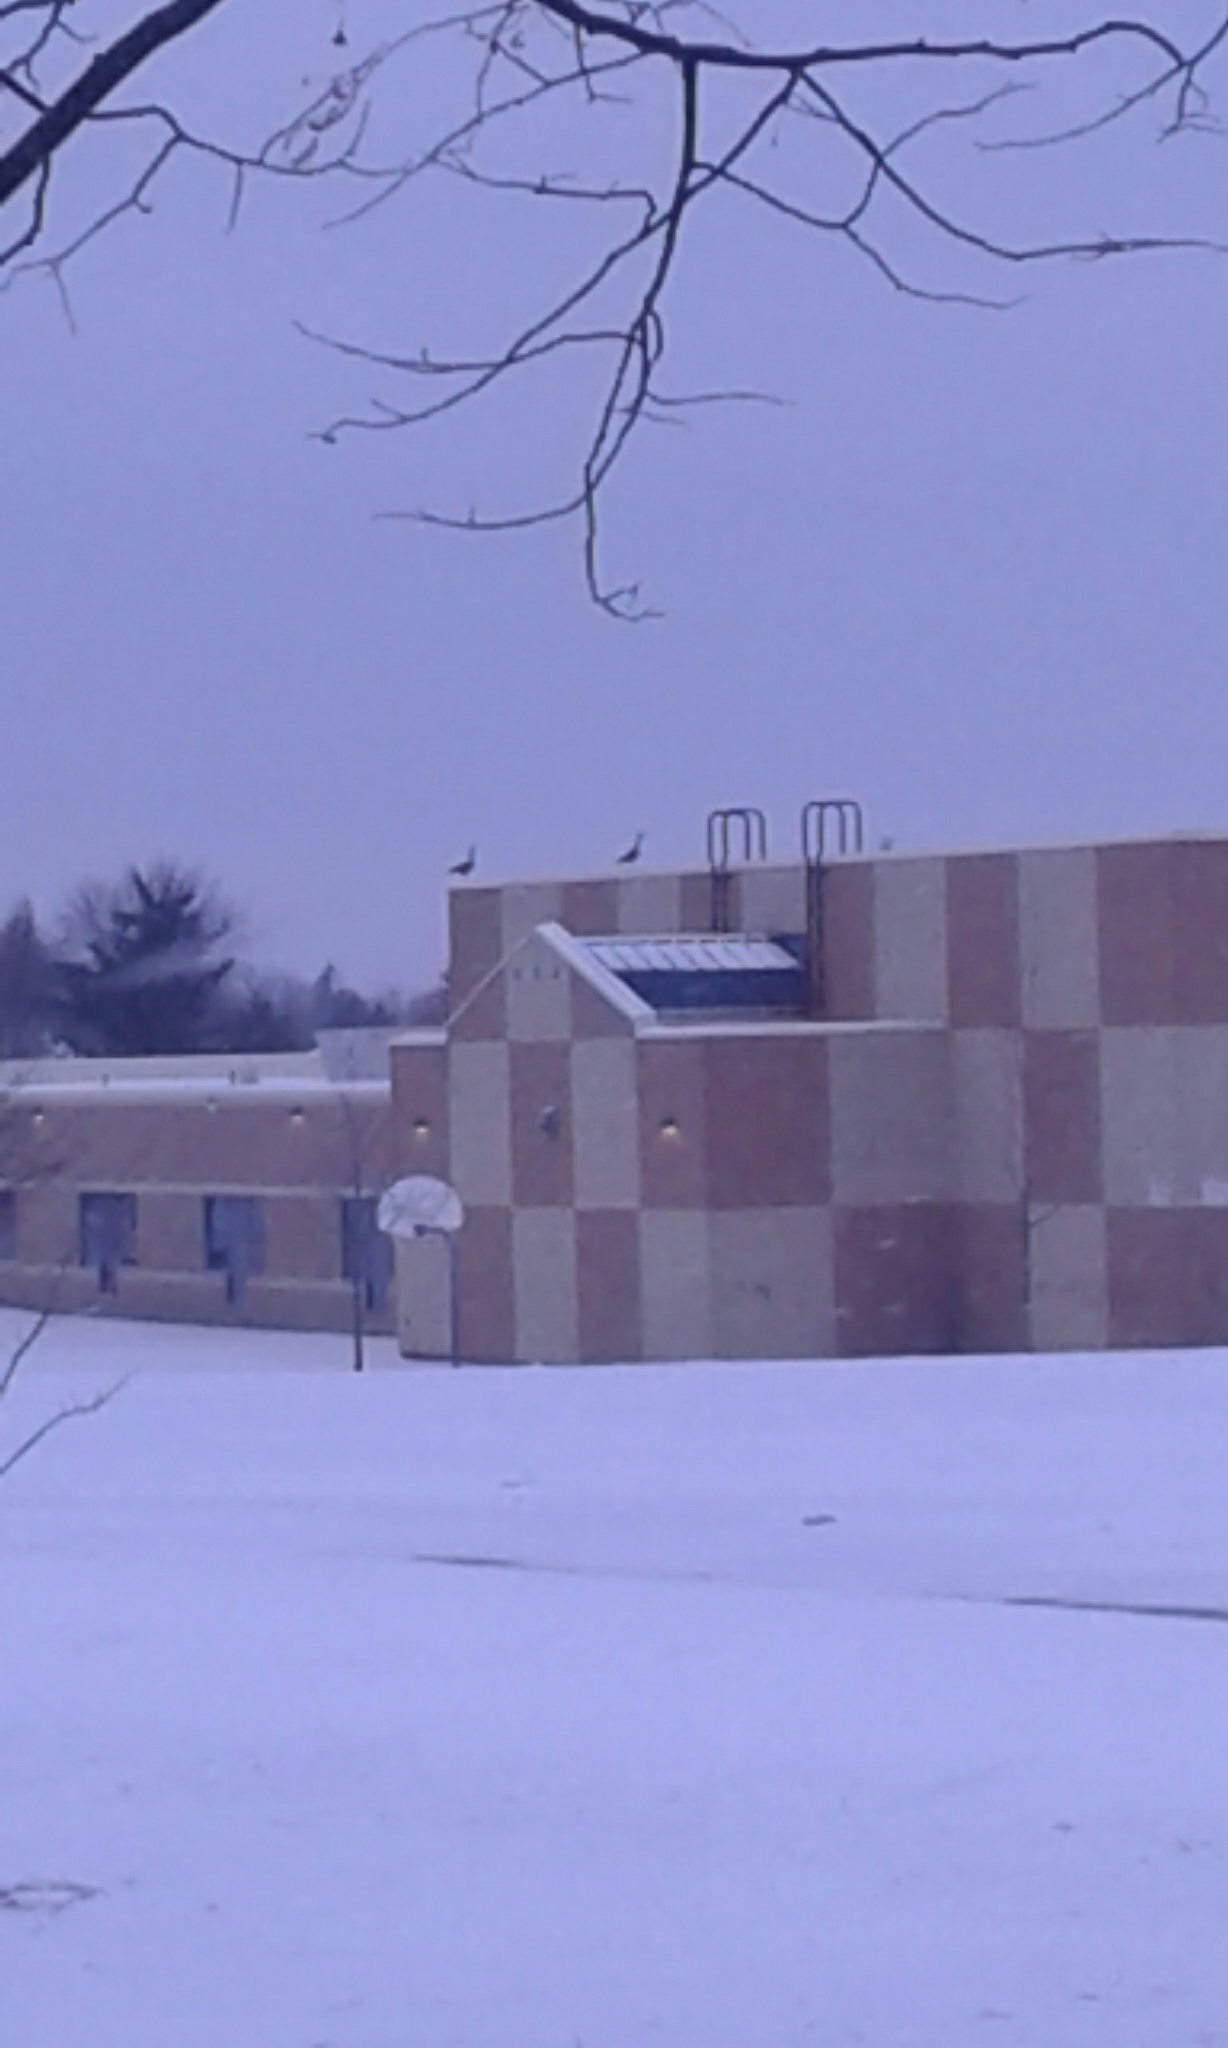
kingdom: Animalia
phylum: Chordata
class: Aves
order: Anseriformes
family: Anatidae
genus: Branta
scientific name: Branta canadensis
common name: Canada goose
